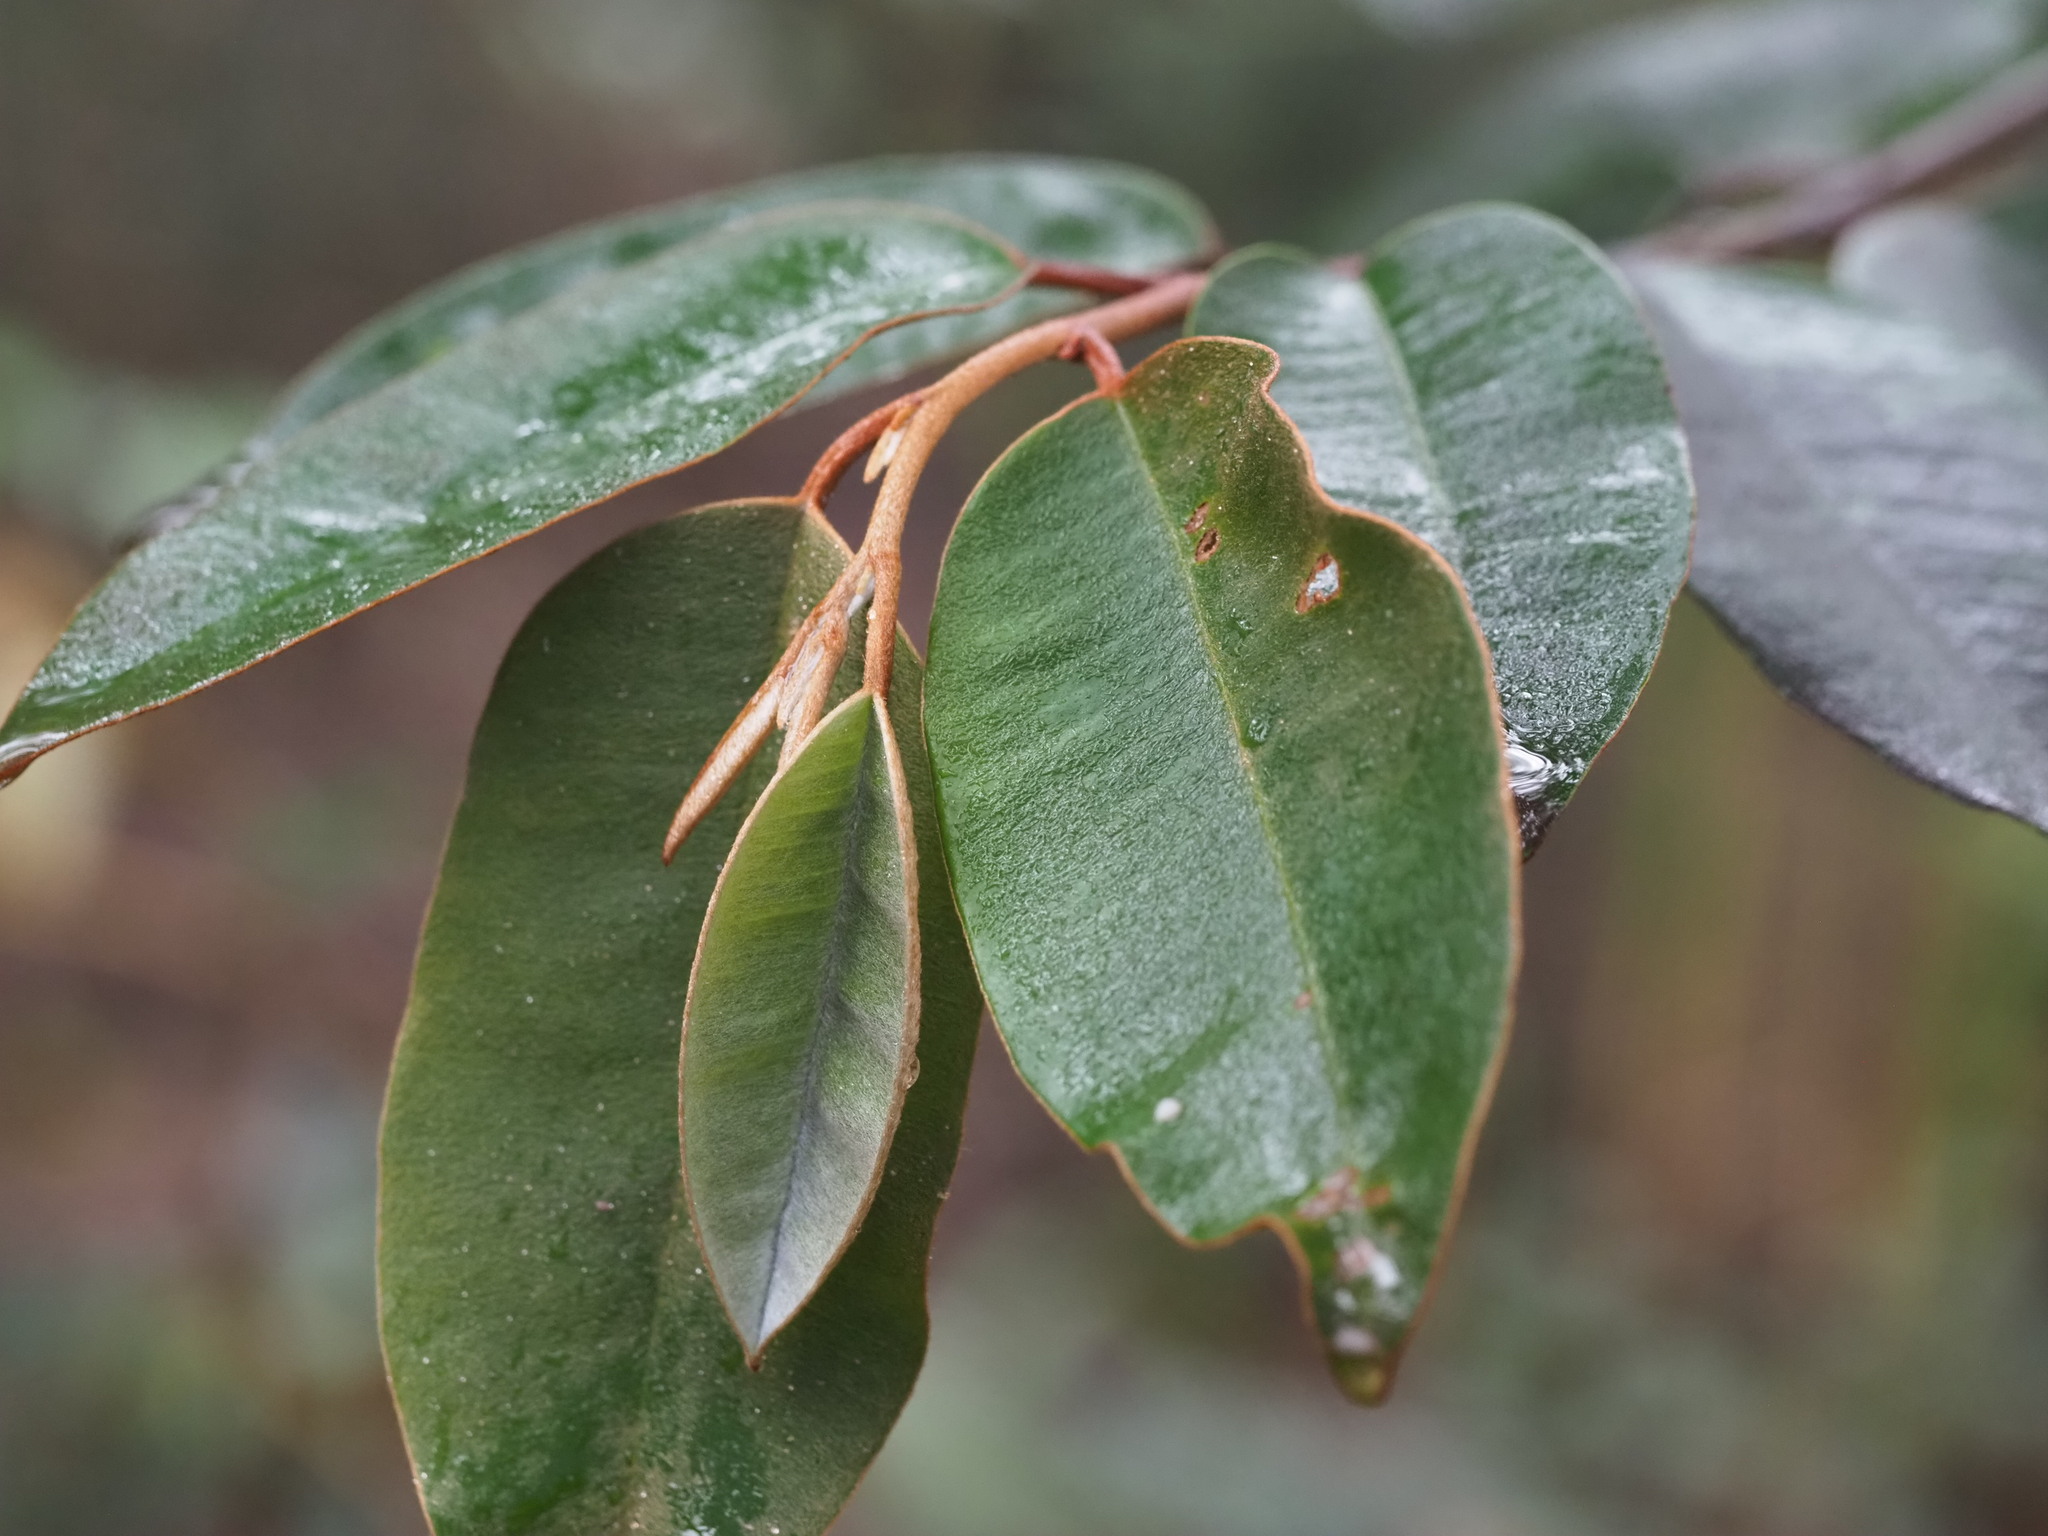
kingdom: Plantae
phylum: Tracheophyta
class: Magnoliopsida
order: Ericales
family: Sapotaceae
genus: Chrysophyllum
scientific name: Chrysophyllum oliviforme
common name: Satinleaf
